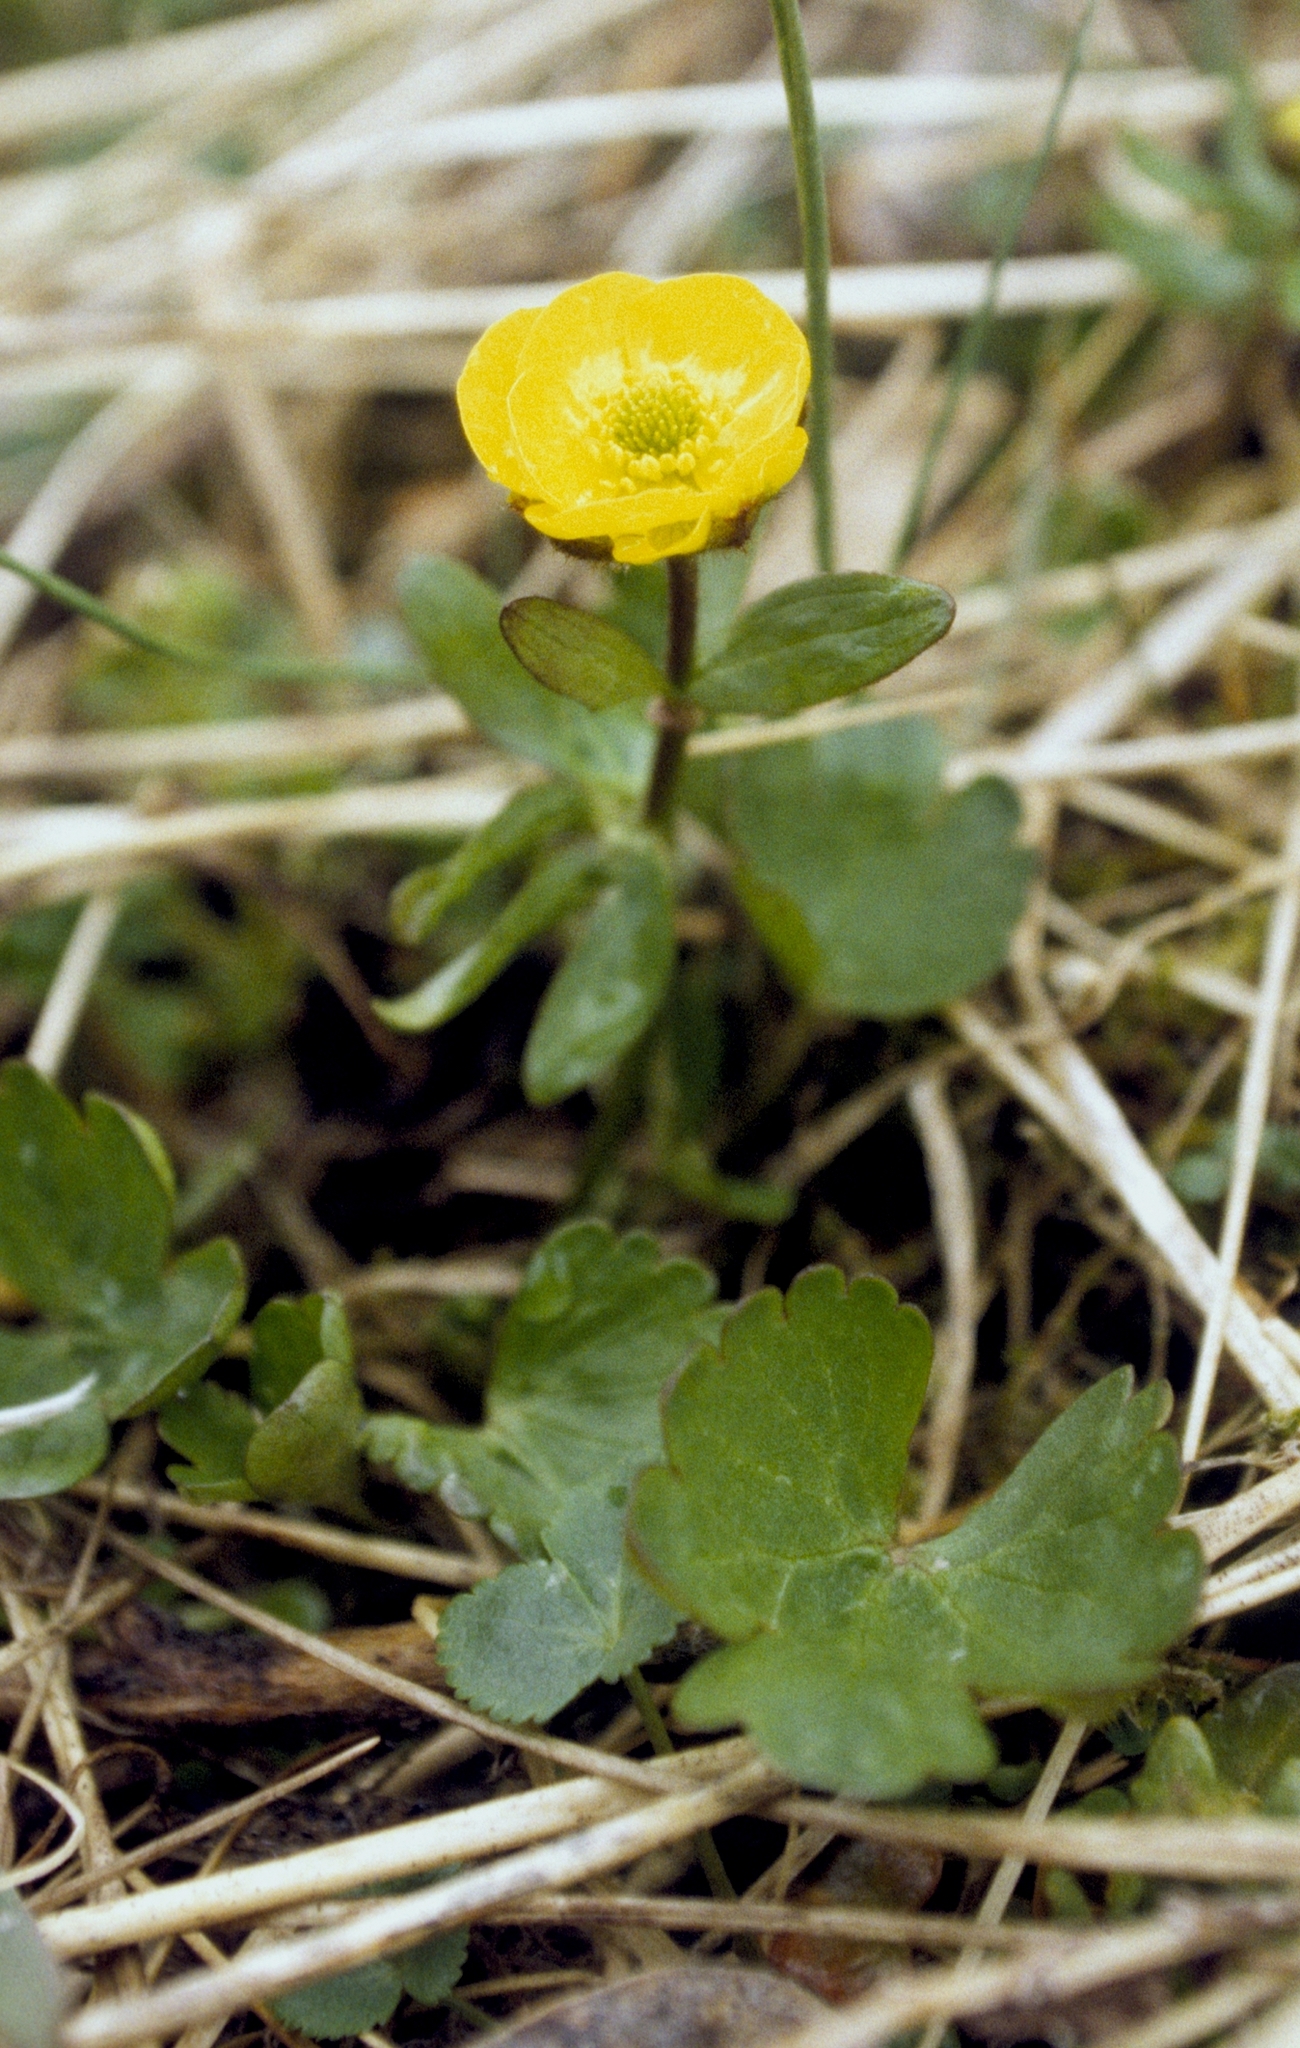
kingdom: Plantae
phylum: Tracheophyta
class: Magnoliopsida
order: Ranunculales
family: Ranunculaceae
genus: Ranunculus
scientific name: Ranunculus sulphureus
